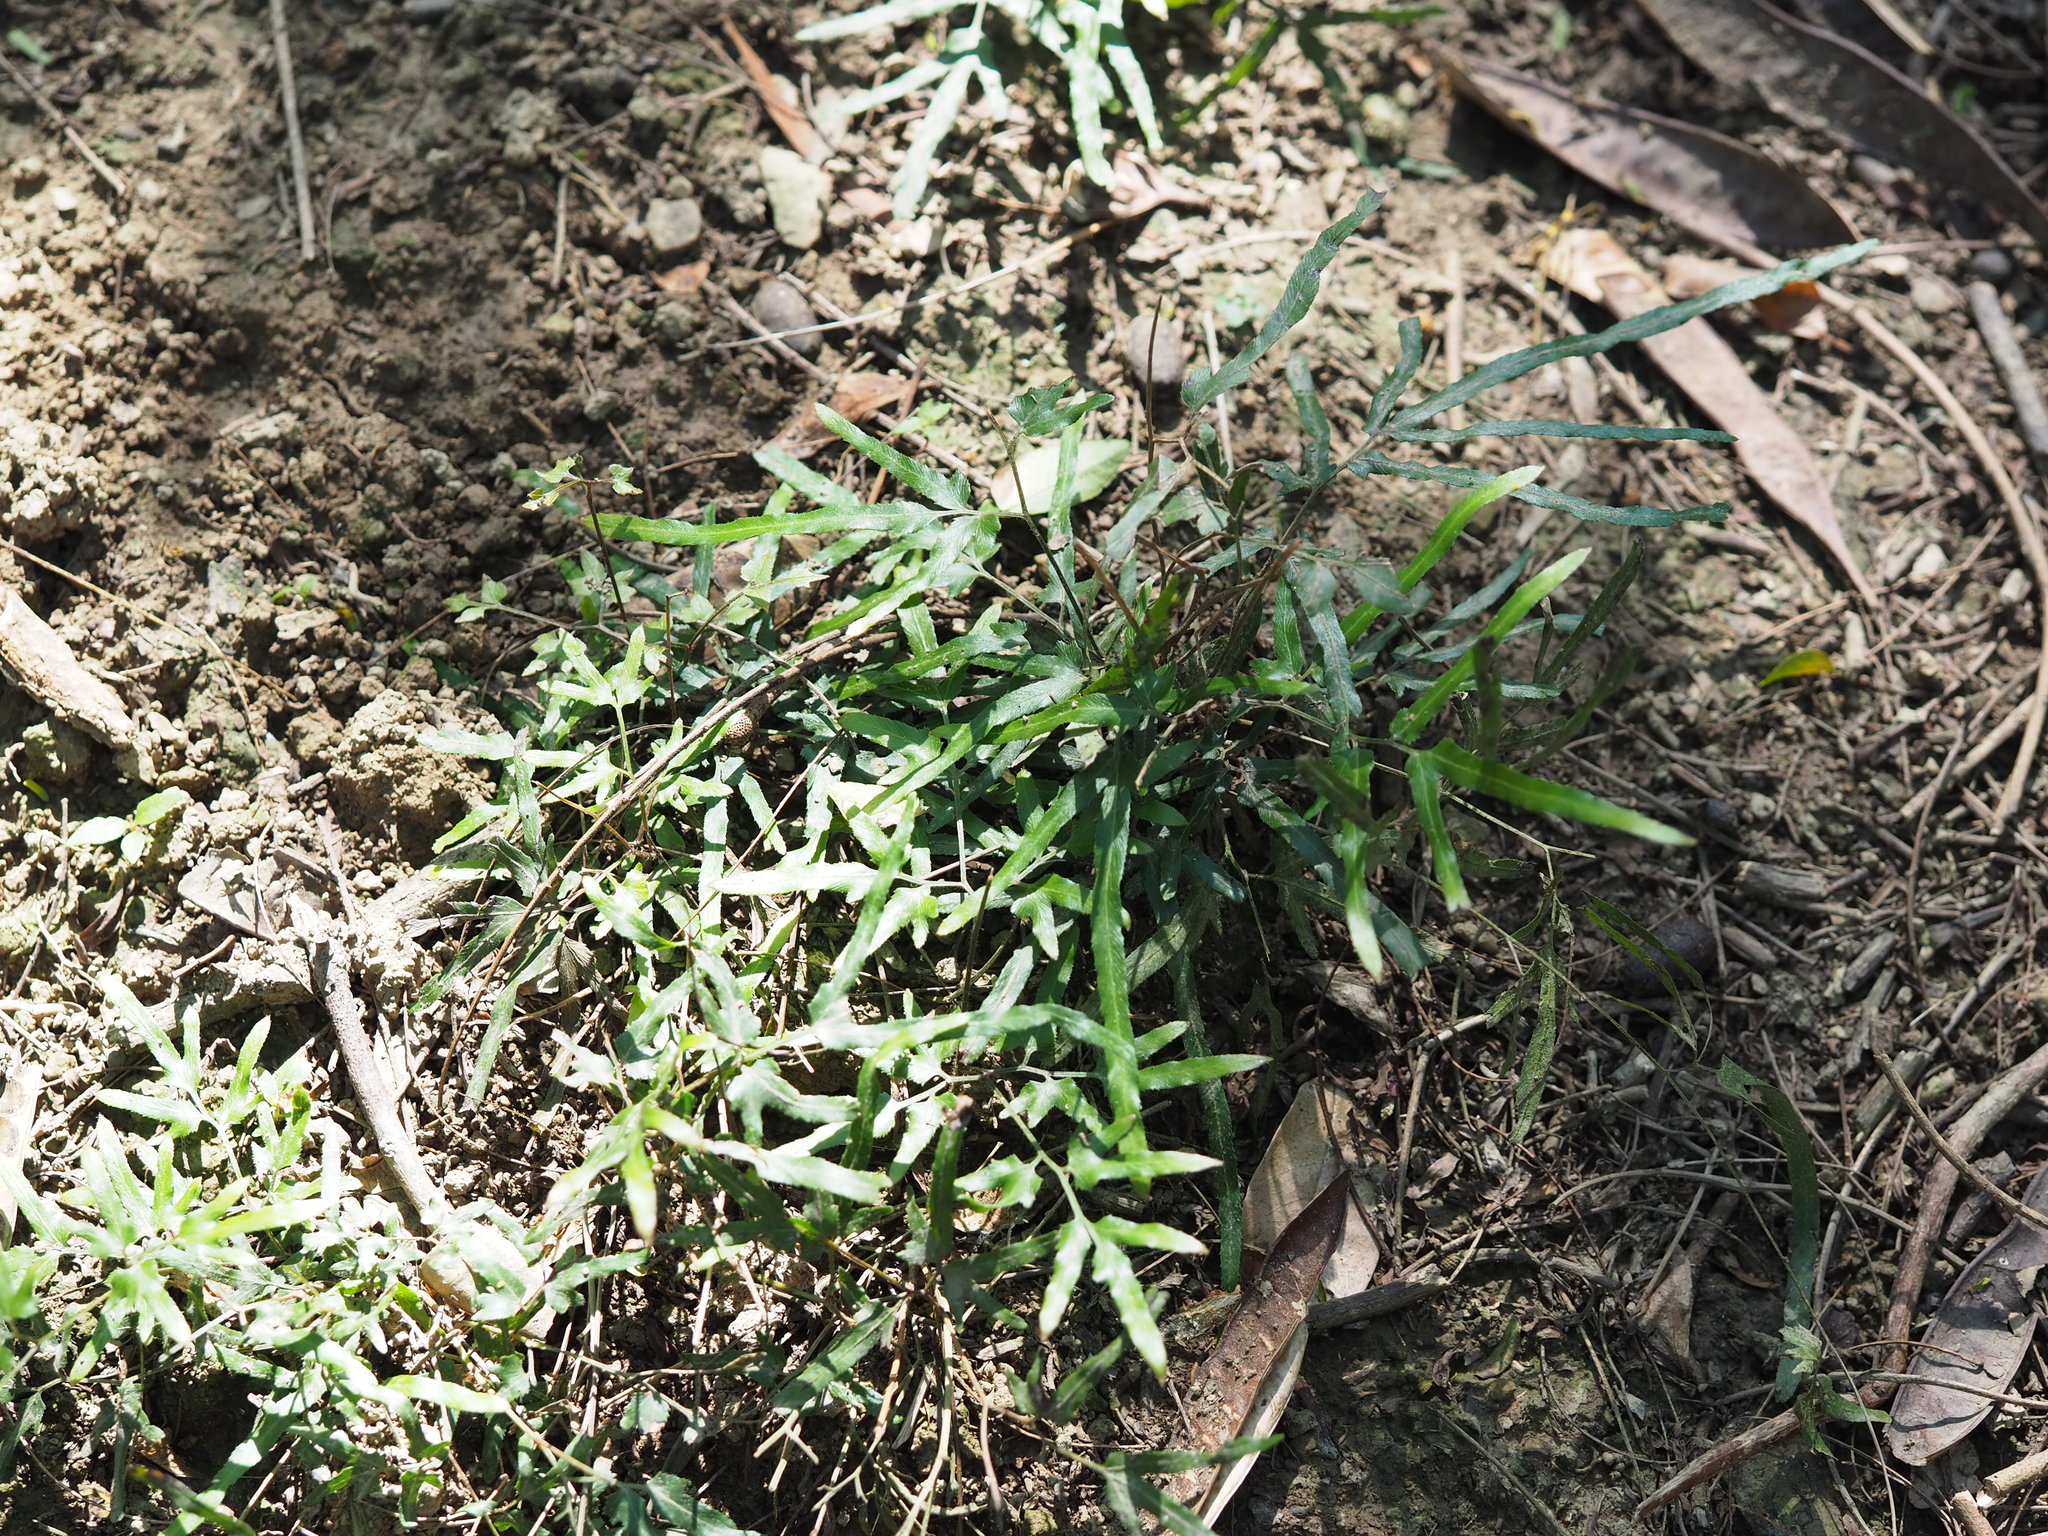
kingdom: Plantae
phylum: Tracheophyta
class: Polypodiopsida
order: Schizaeales
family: Lygodiaceae
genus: Lygodium
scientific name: Lygodium japonicum
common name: Japanese climbing fern
